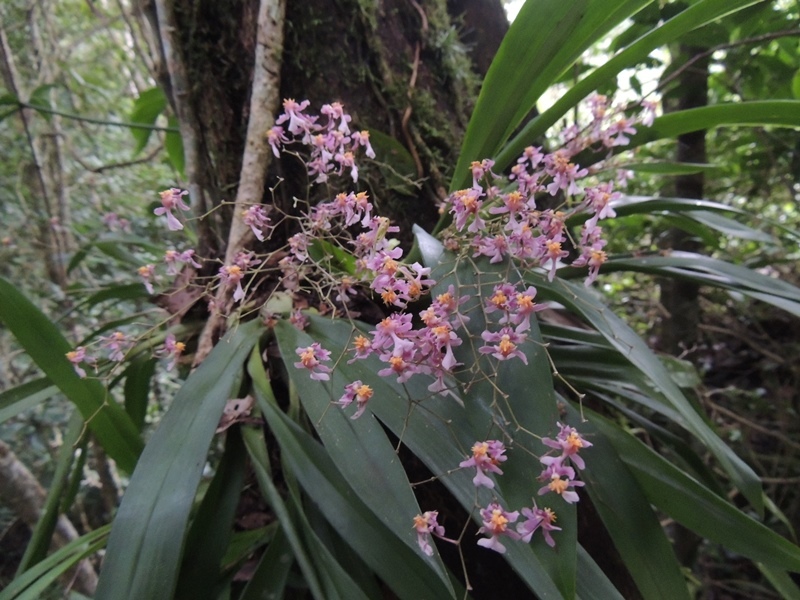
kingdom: Plantae
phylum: Tracheophyta
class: Liliopsida
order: Asparagales
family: Orchidaceae
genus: Oncidium
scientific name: Oncidium sotoanum
